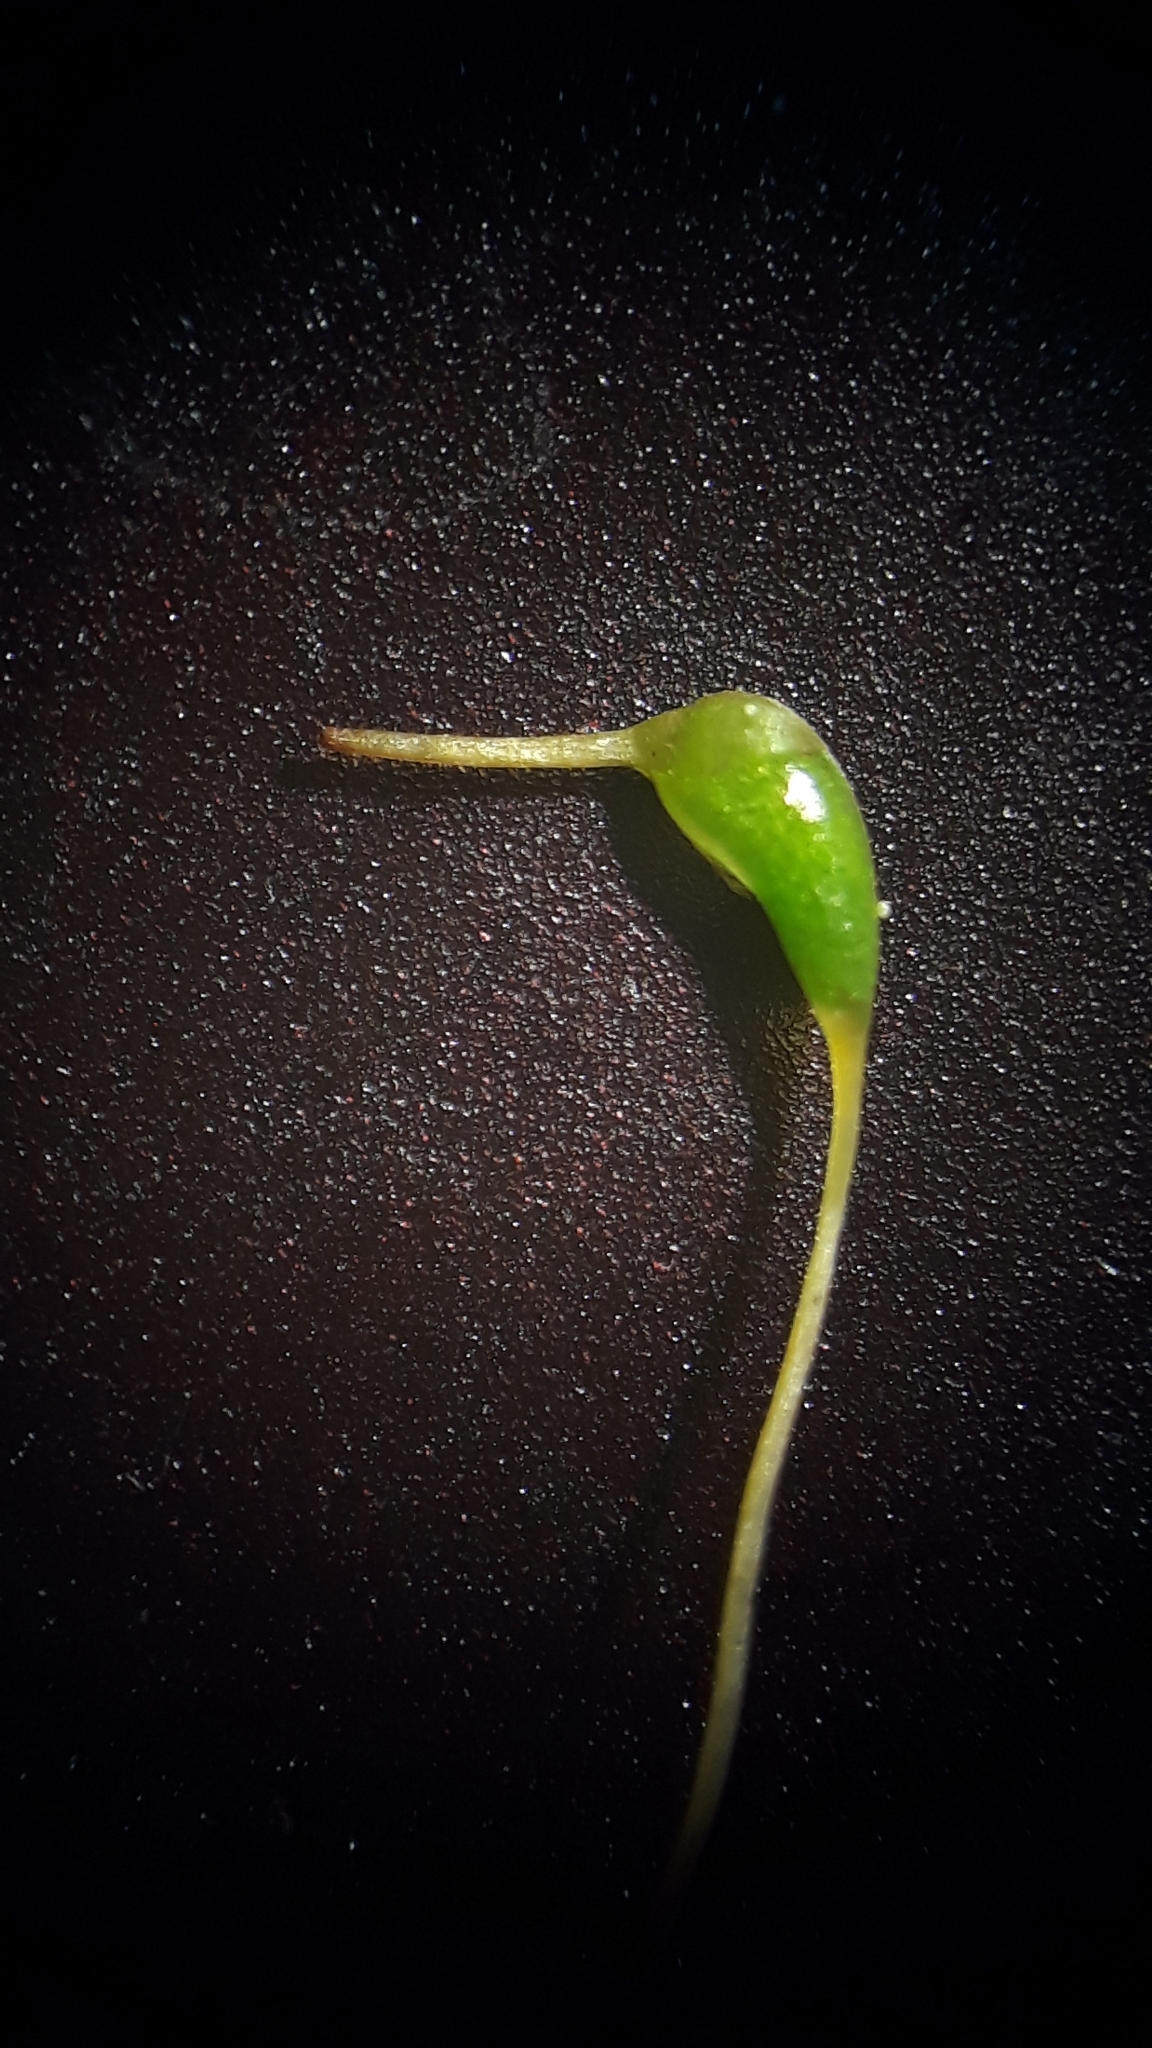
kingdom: Plantae
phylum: Bryophyta
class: Bryopsida
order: Funariales
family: Funariaceae
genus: Funaria
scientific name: Funaria hygrometrica
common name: Common cord moss
